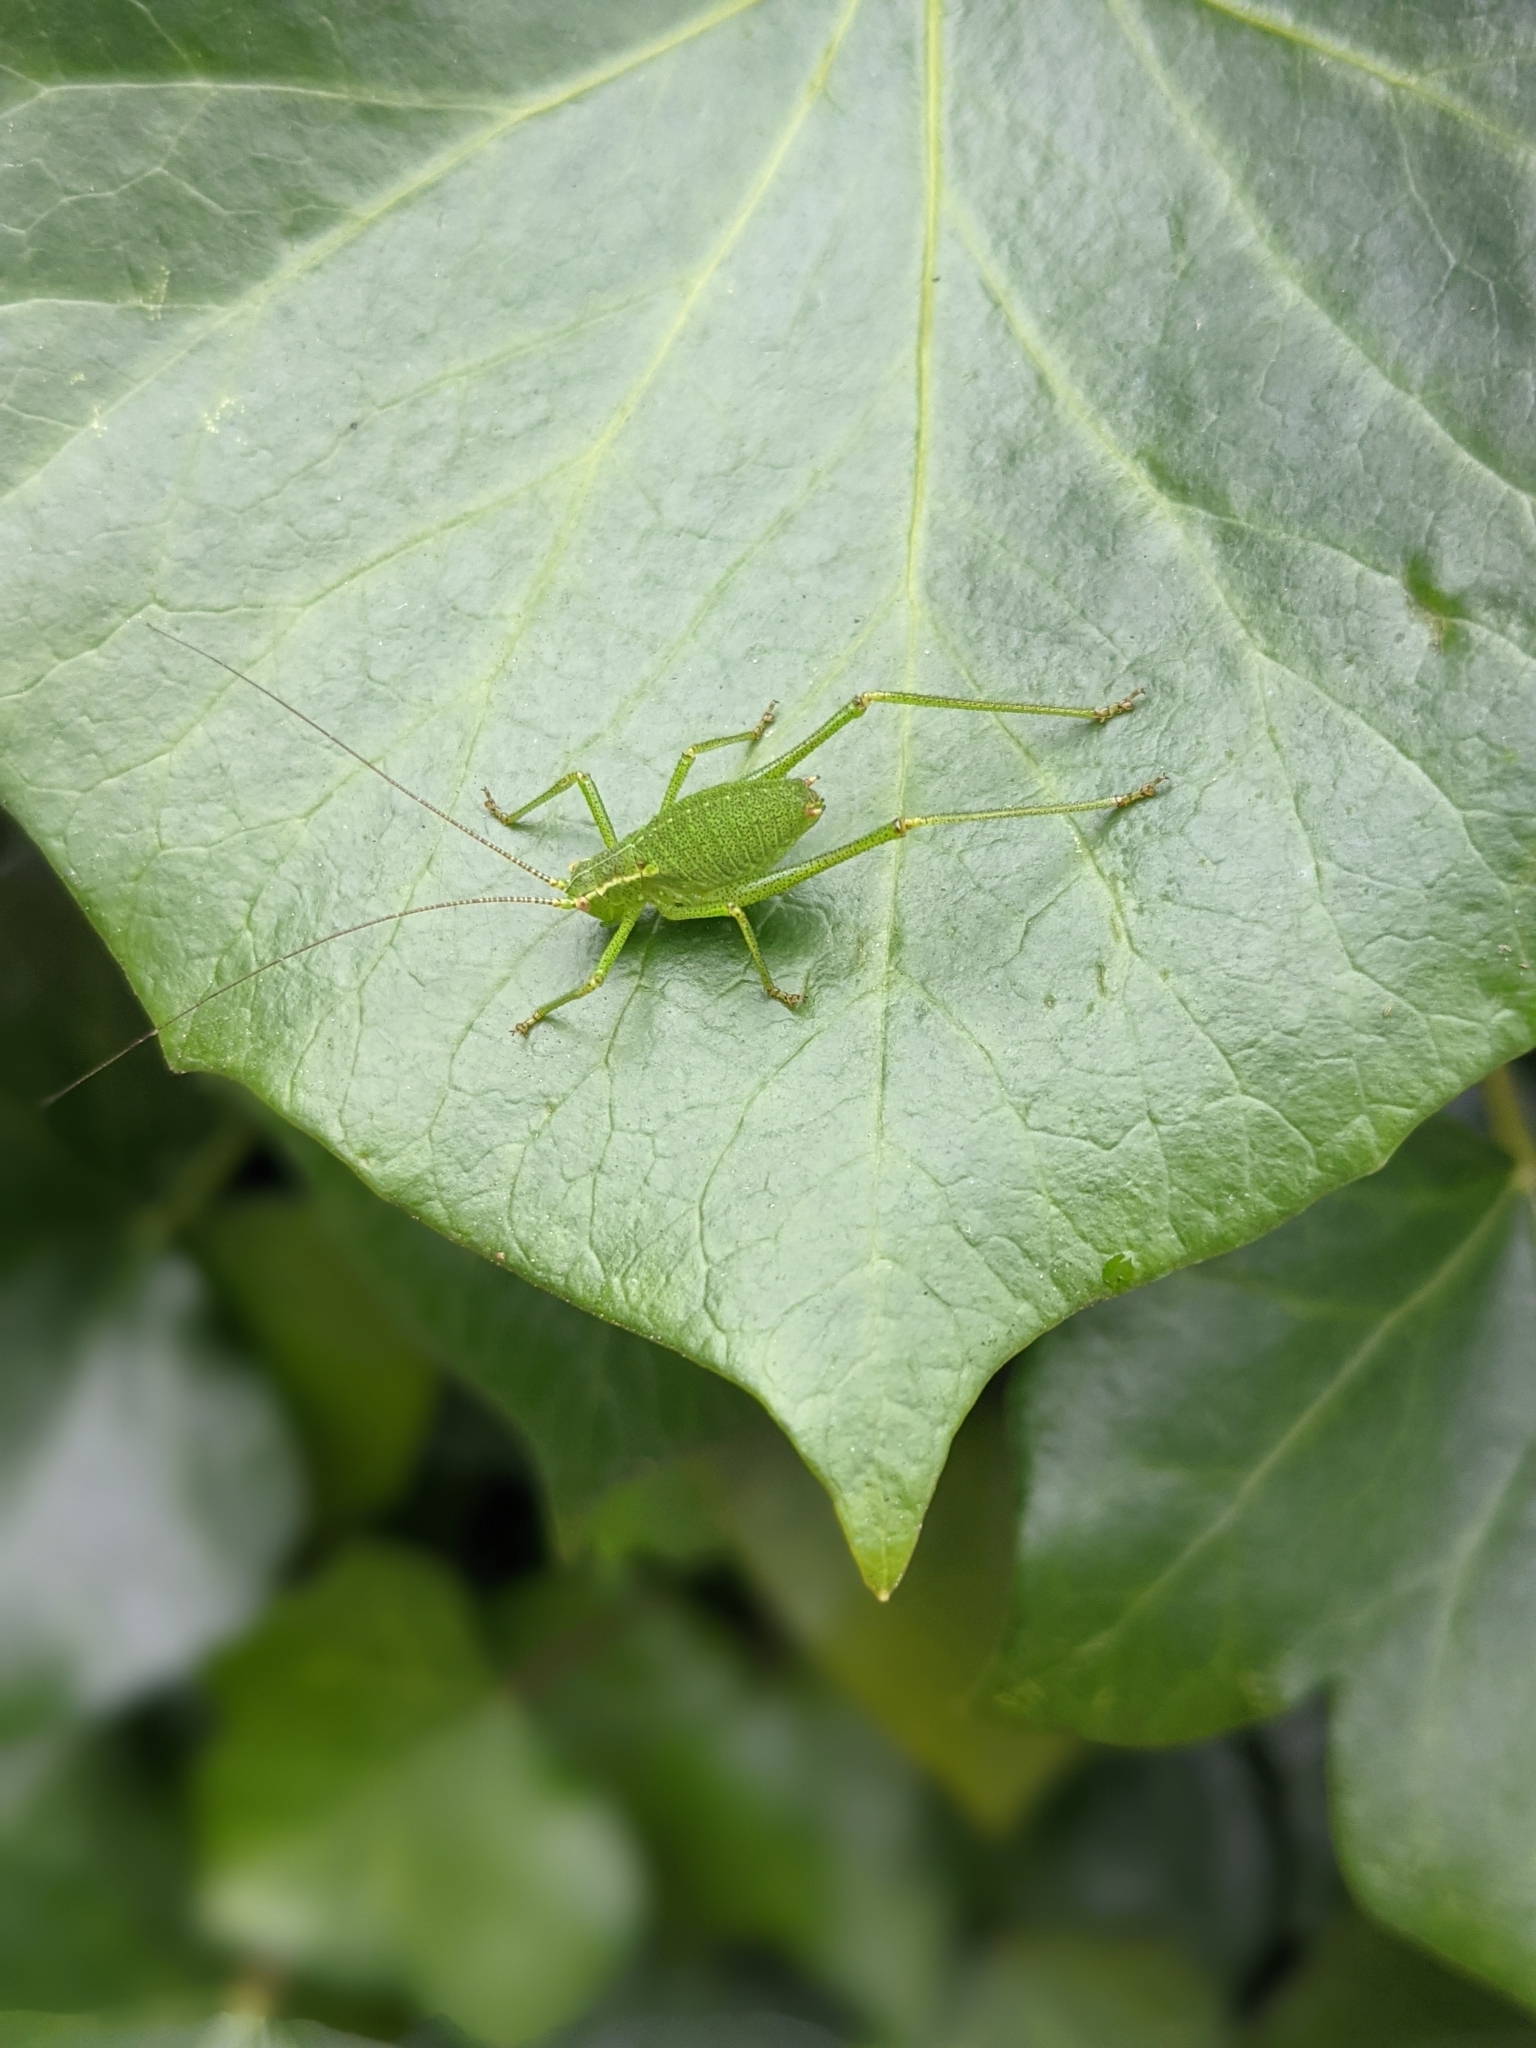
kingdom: Animalia
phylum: Arthropoda
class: Insecta
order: Orthoptera
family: Tettigoniidae
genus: Leptophyes
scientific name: Leptophyes punctatissima
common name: Speckled bush-cricket
